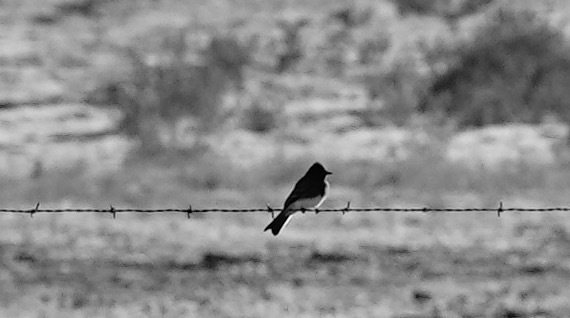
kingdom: Animalia
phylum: Chordata
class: Aves
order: Passeriformes
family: Tyrannidae
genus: Sayornis
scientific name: Sayornis nigricans
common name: Black phoebe
